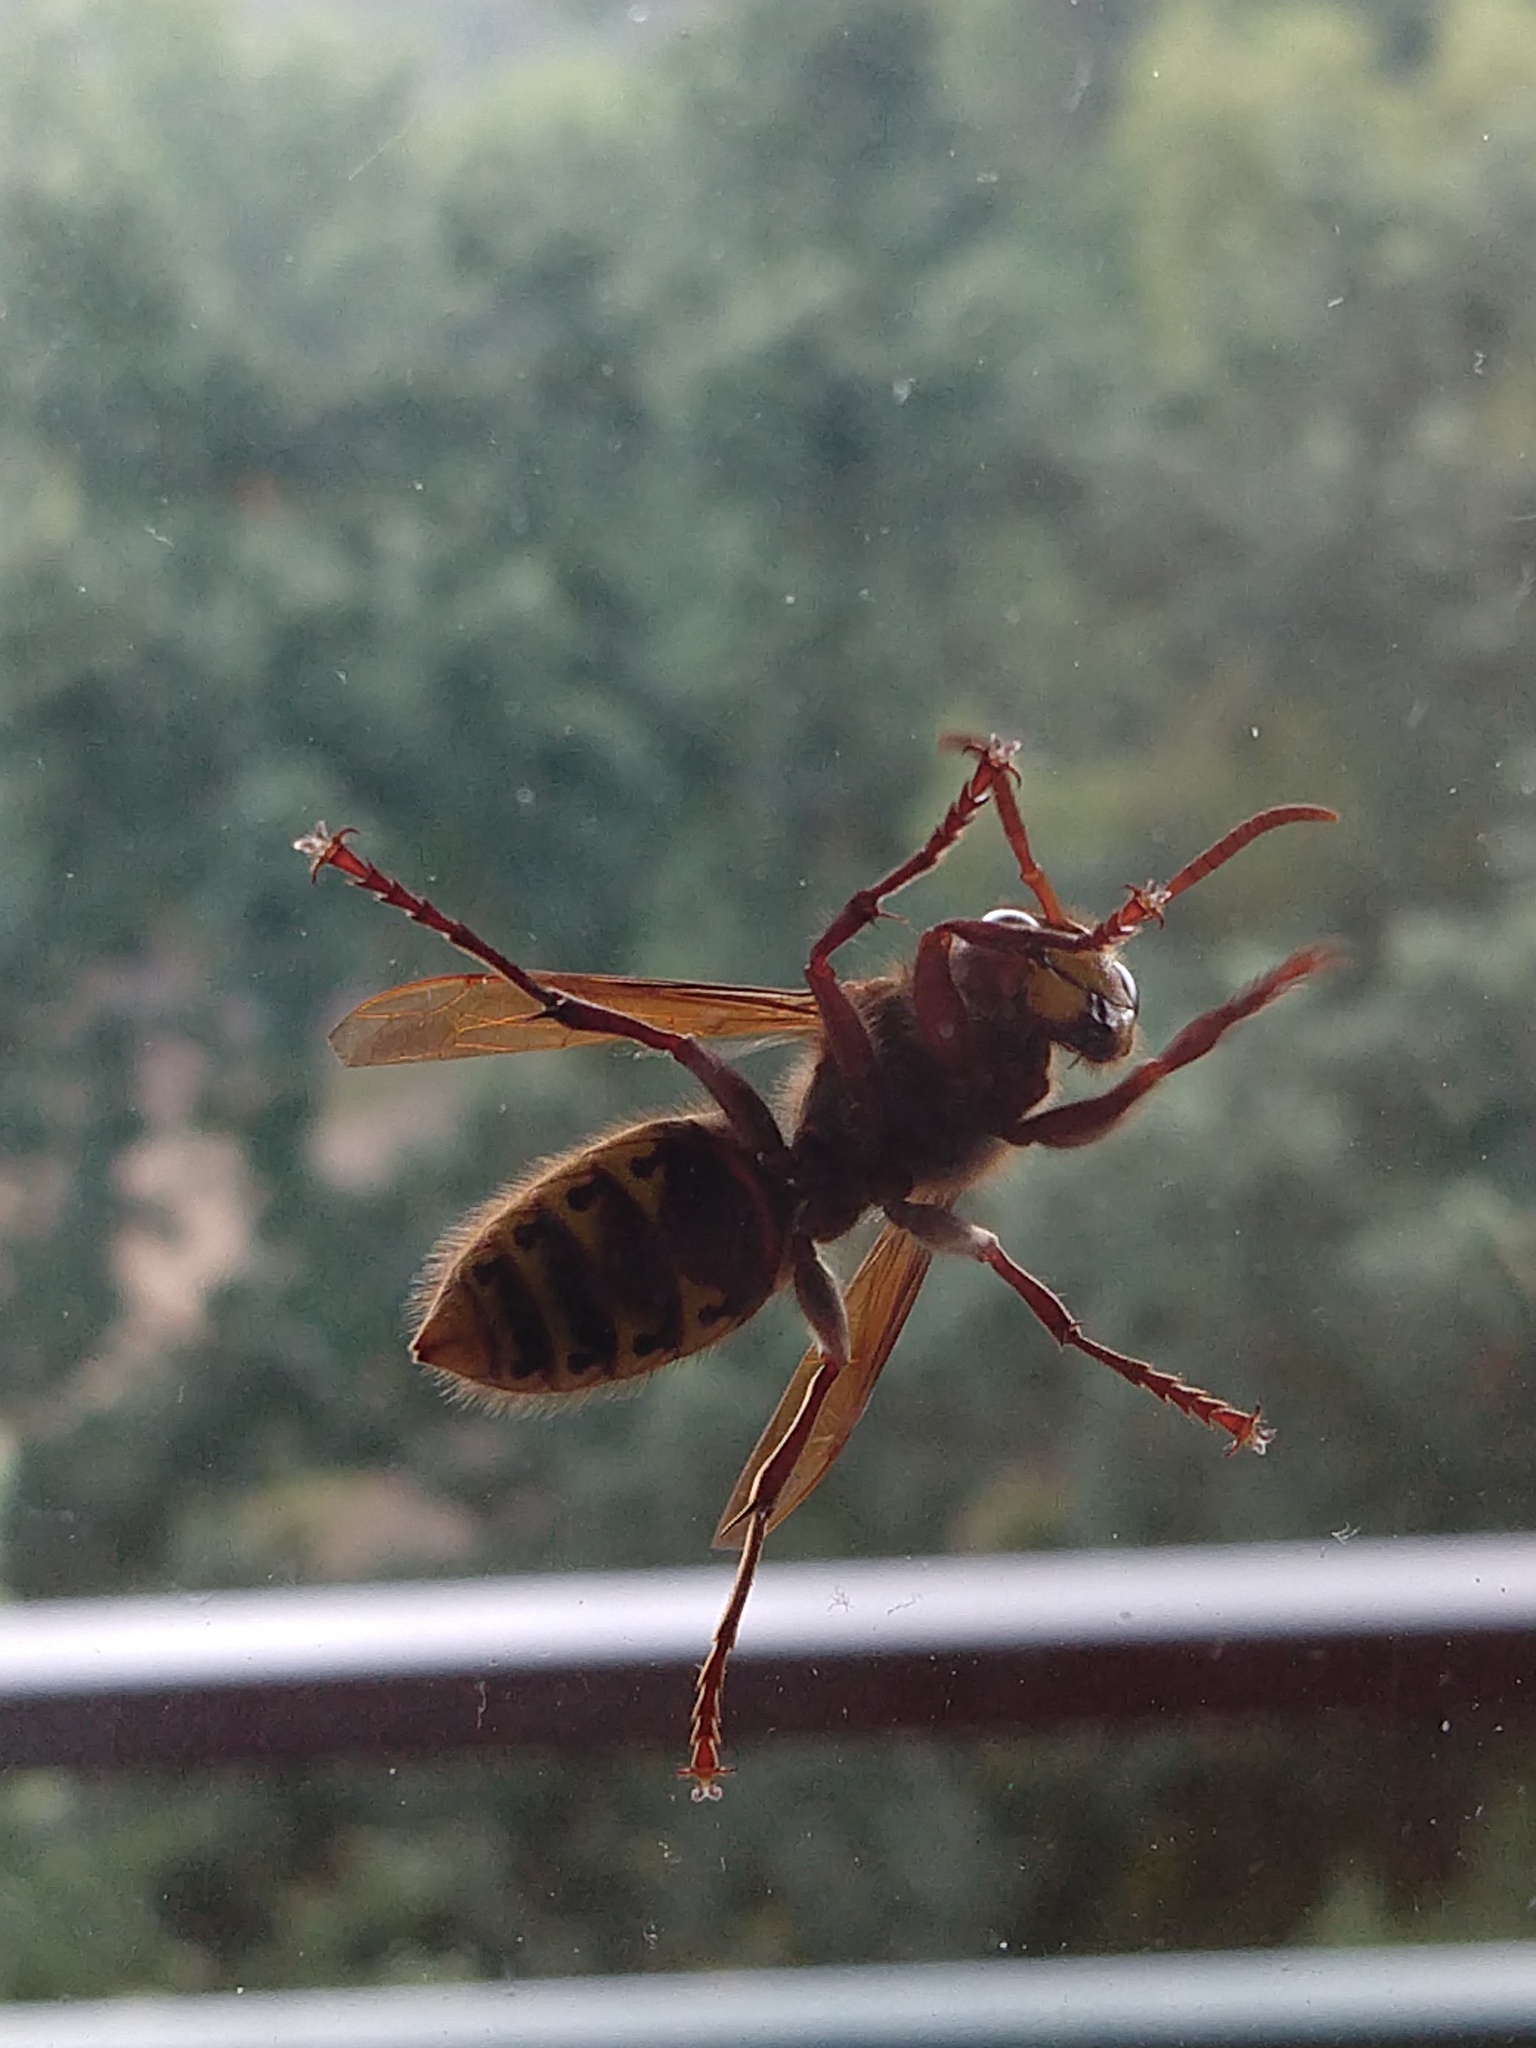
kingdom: Animalia
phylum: Arthropoda
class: Insecta
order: Hymenoptera
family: Vespidae
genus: Vespa
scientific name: Vespa crabro
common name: Hornet
